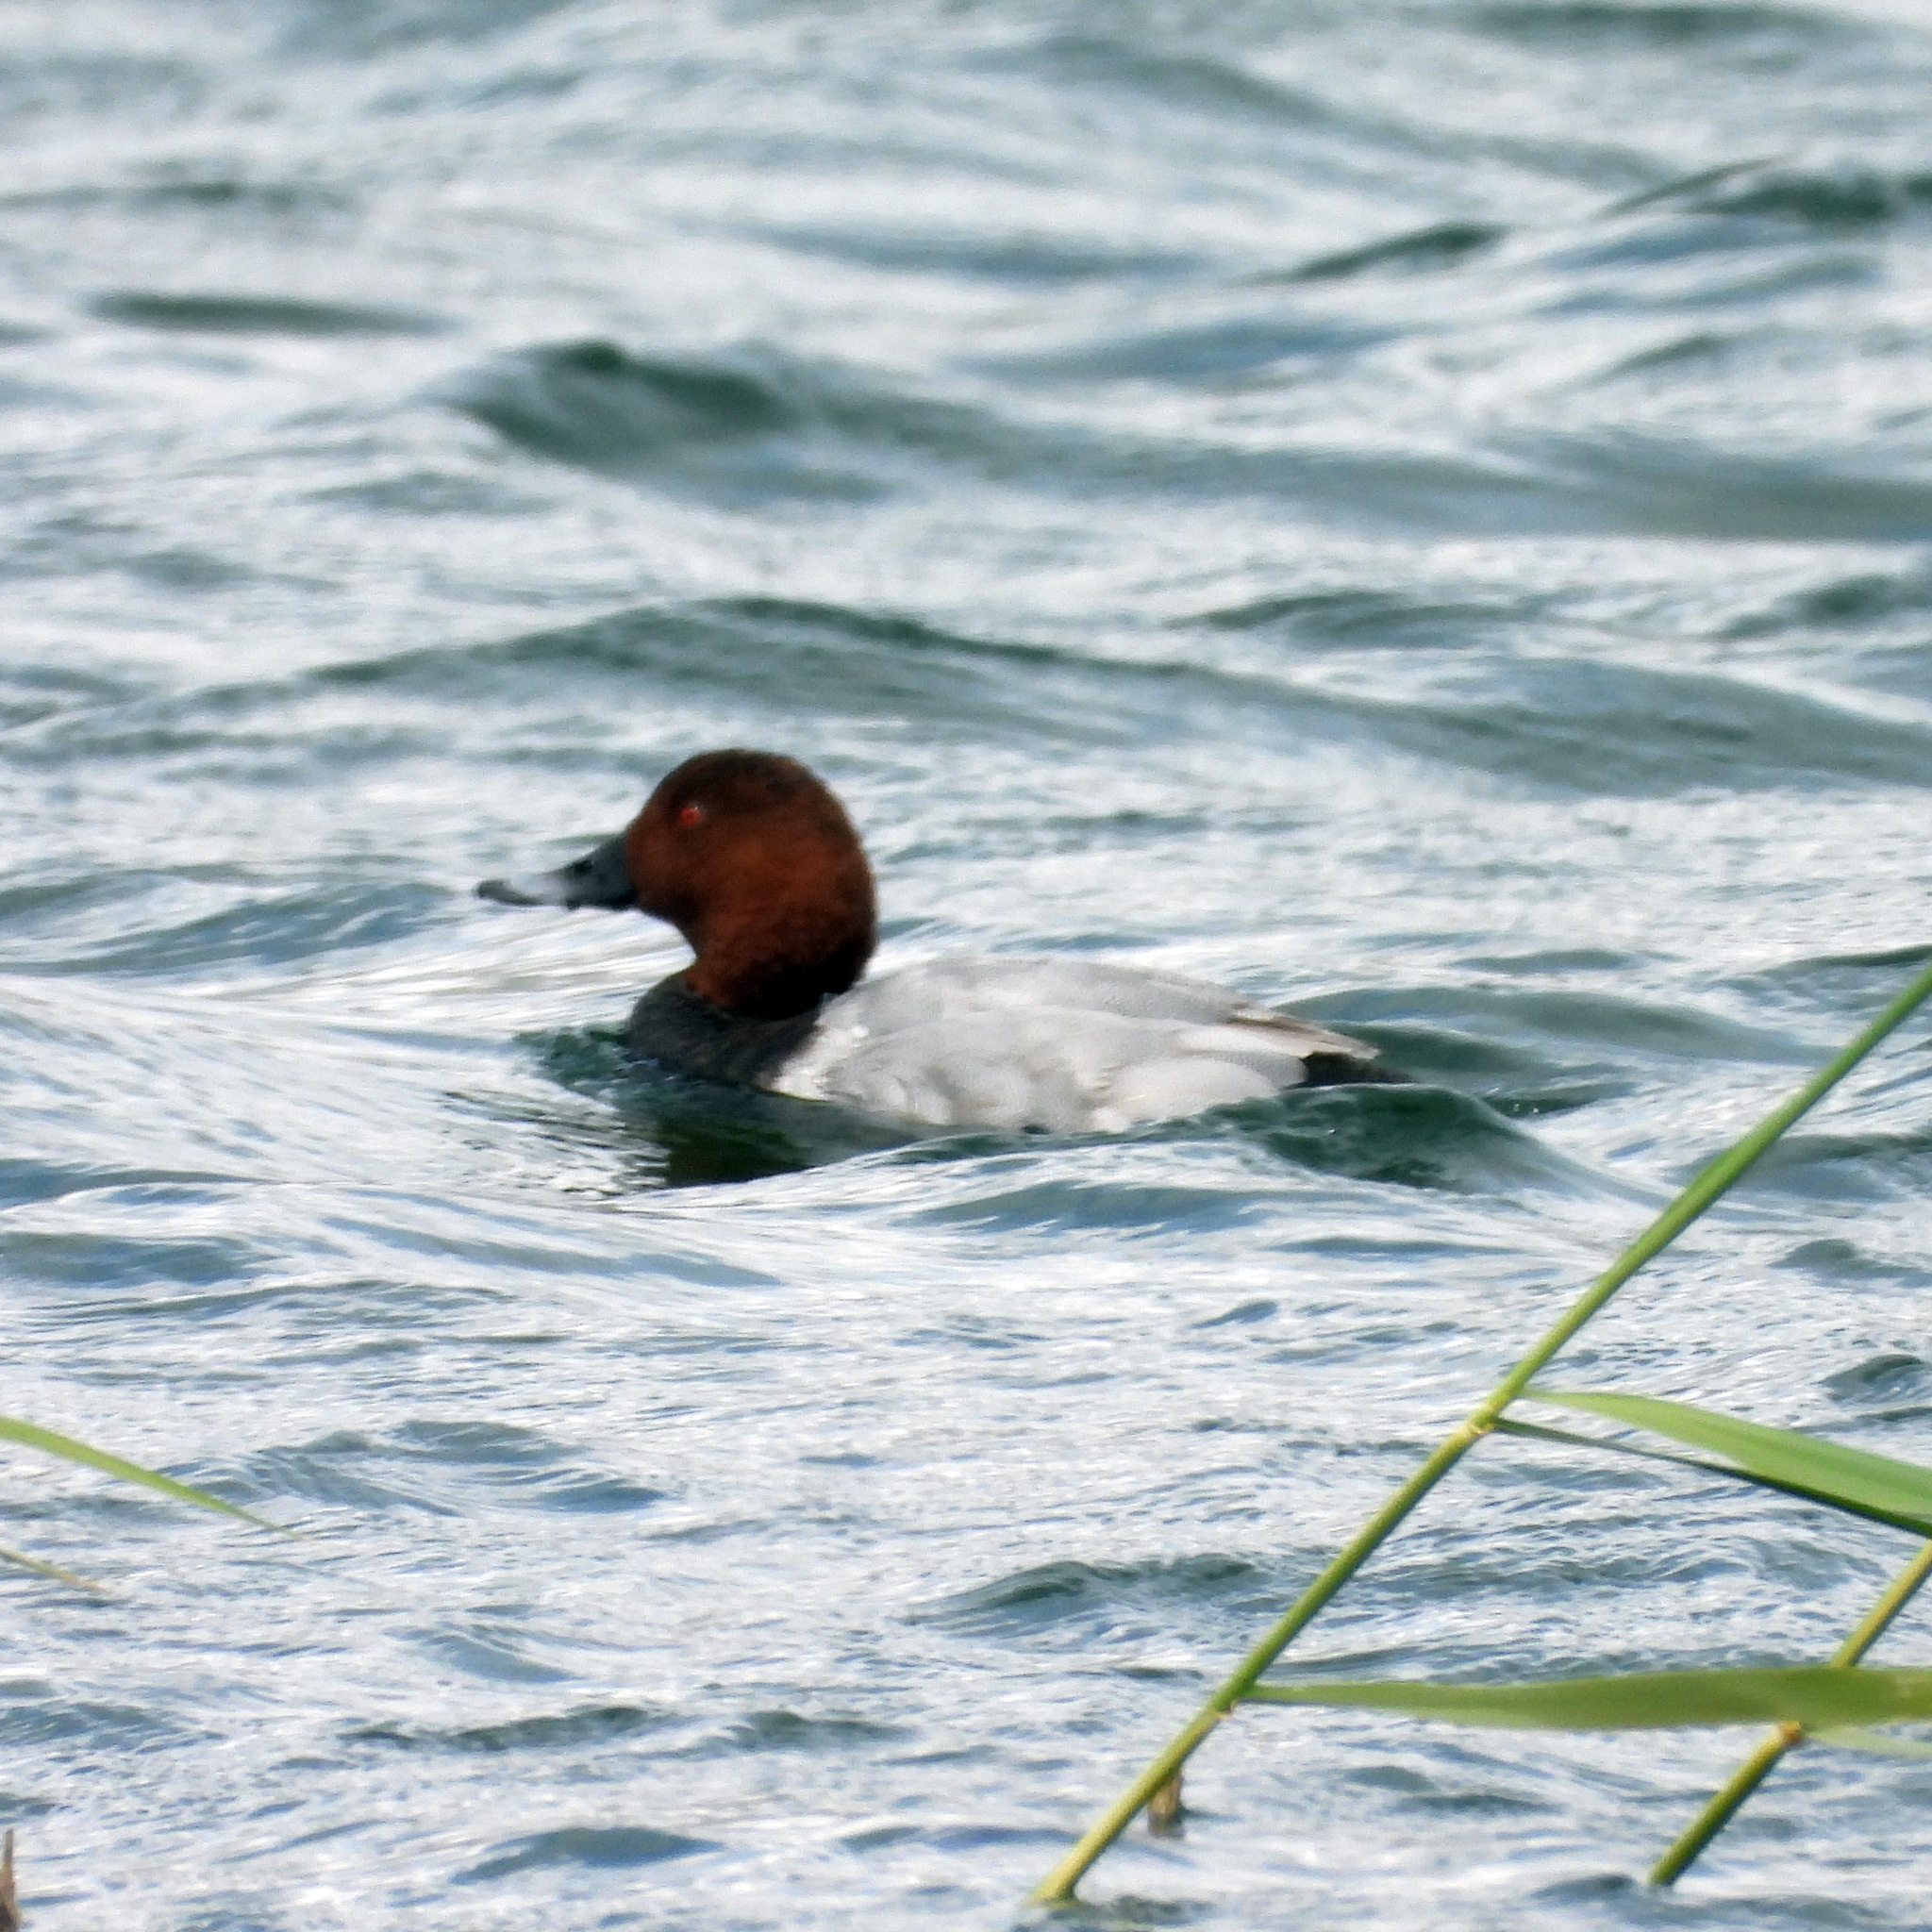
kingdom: Animalia
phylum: Chordata
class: Aves
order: Anseriformes
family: Anatidae
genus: Aythya
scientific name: Aythya ferina
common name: Common pochard
